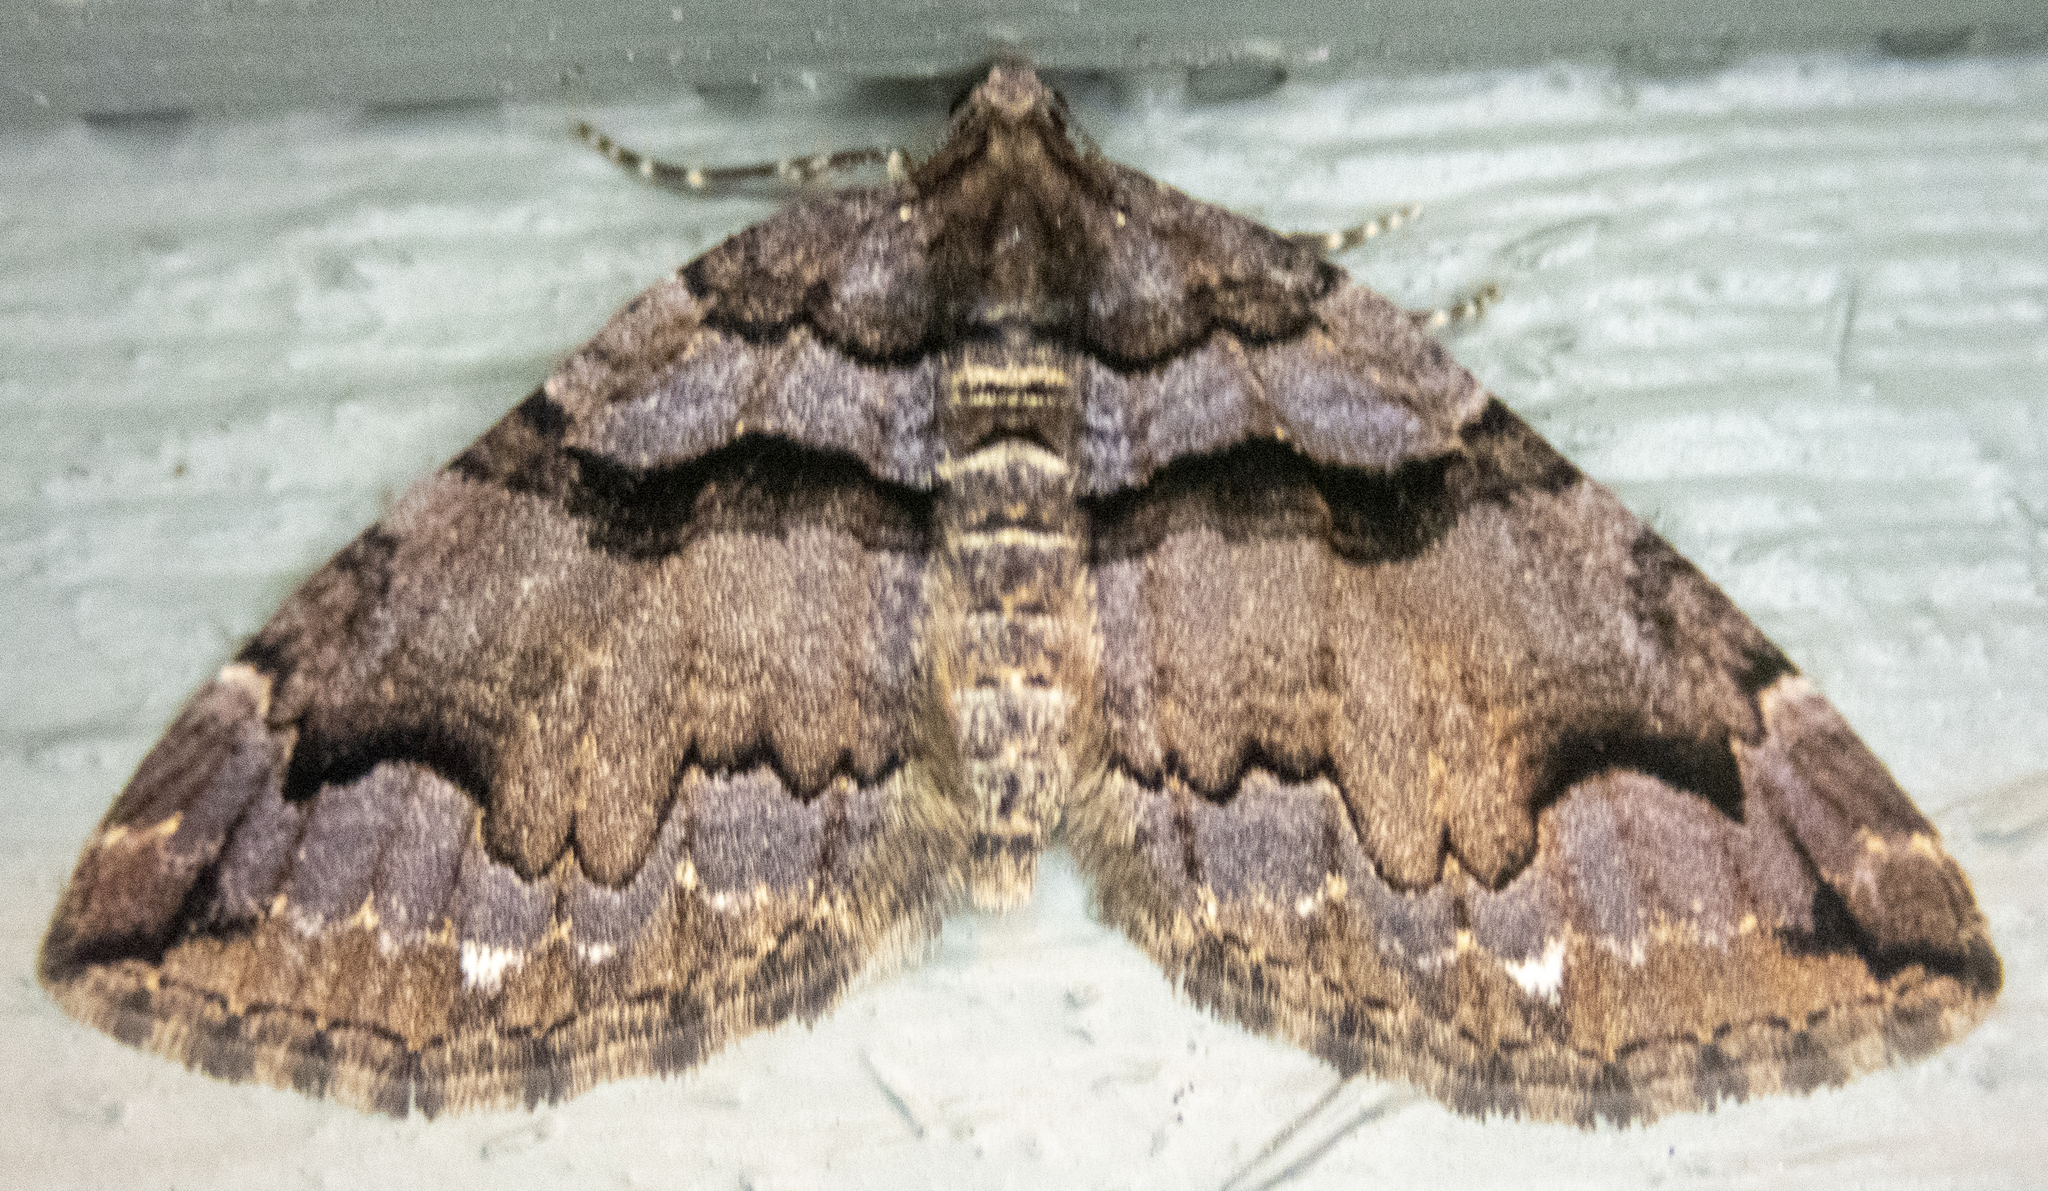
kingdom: Animalia
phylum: Arthropoda
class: Insecta
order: Lepidoptera
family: Geometridae
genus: Anticlea
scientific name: Anticlea vasiliata
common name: Variable carpet
